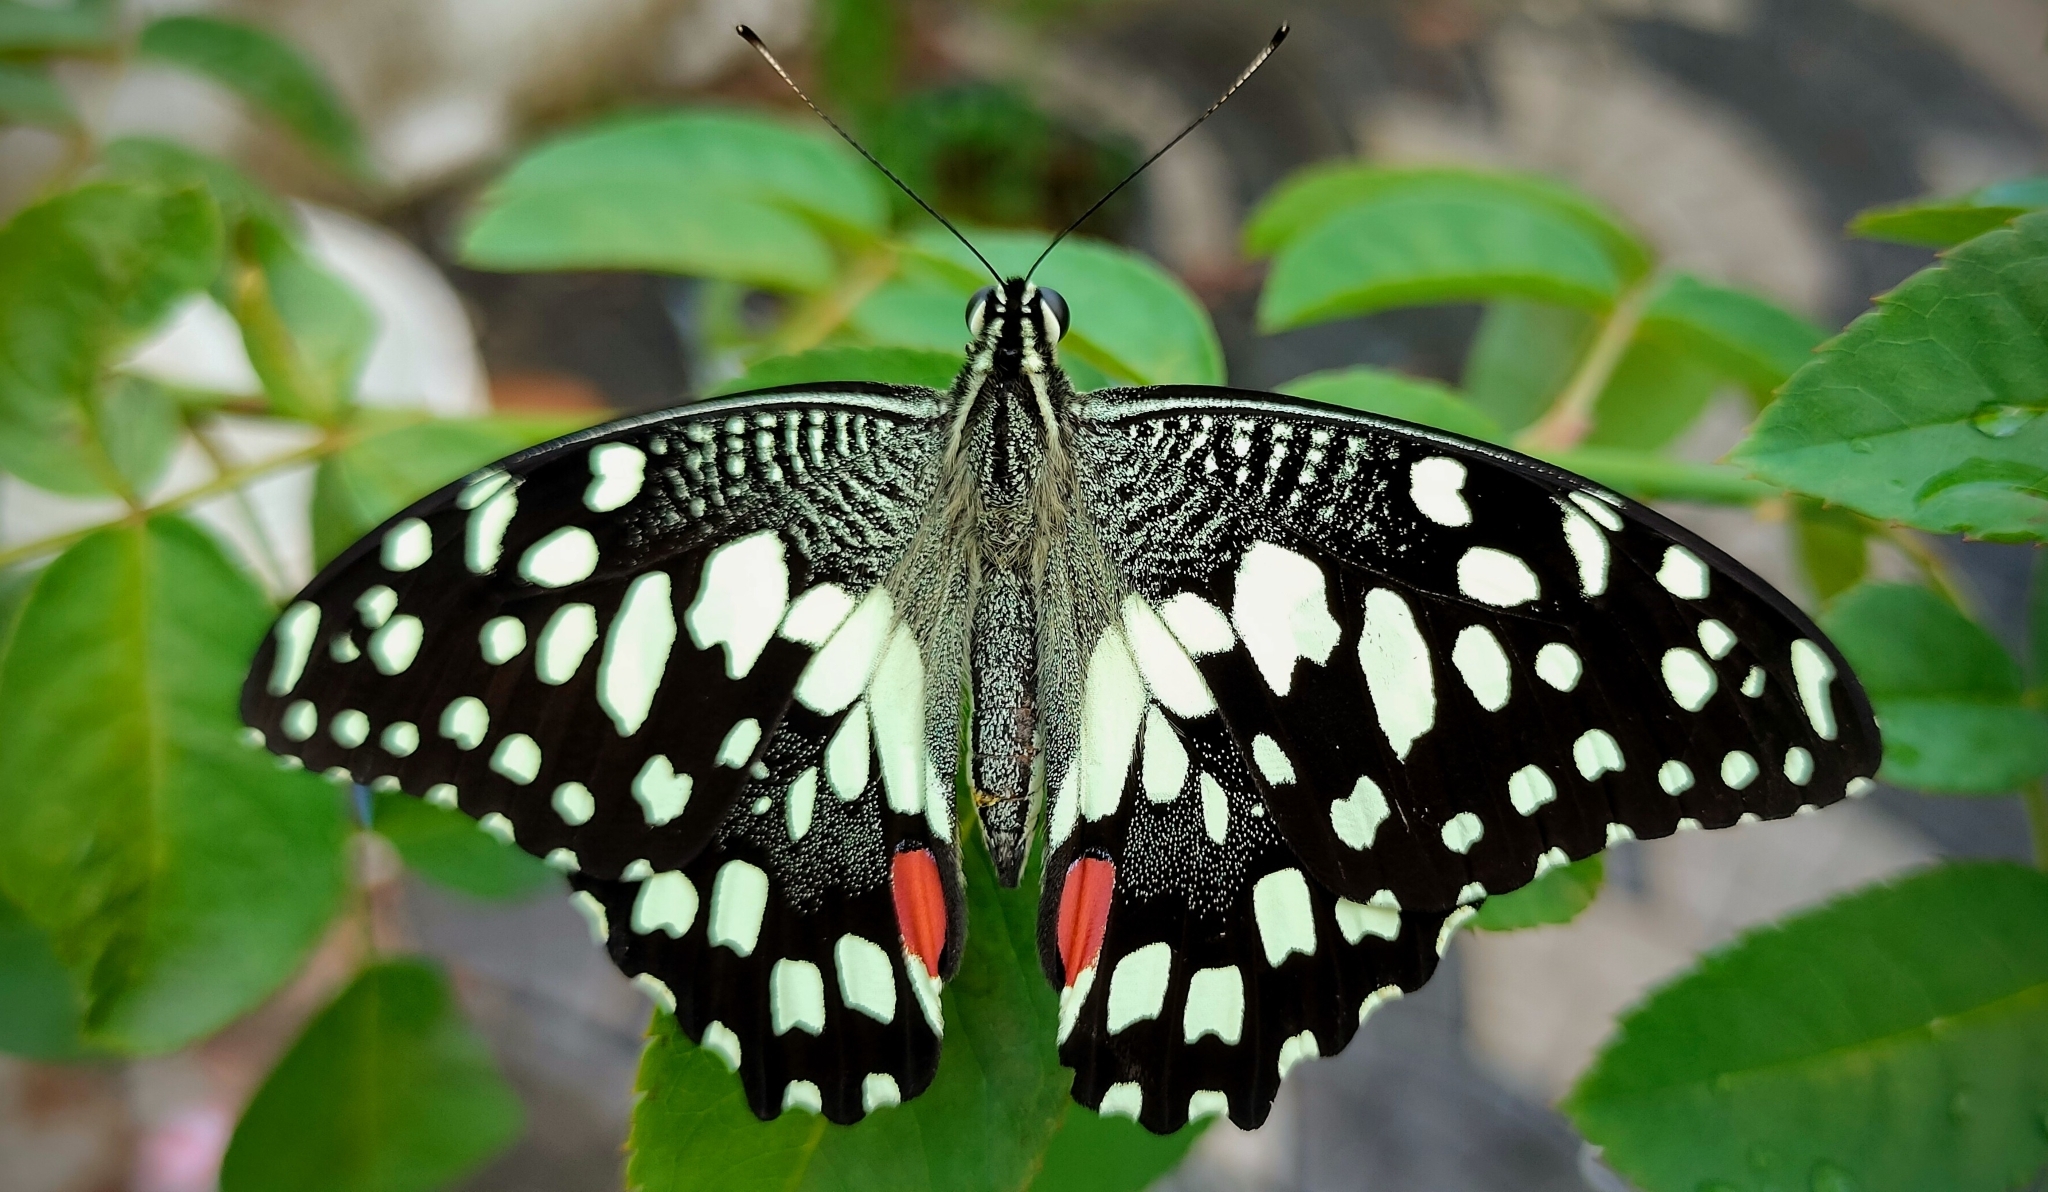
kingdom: Animalia
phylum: Arthropoda
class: Insecta
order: Lepidoptera
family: Papilionidae
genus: Papilio
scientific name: Papilio demoleus
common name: Lime butterfly
